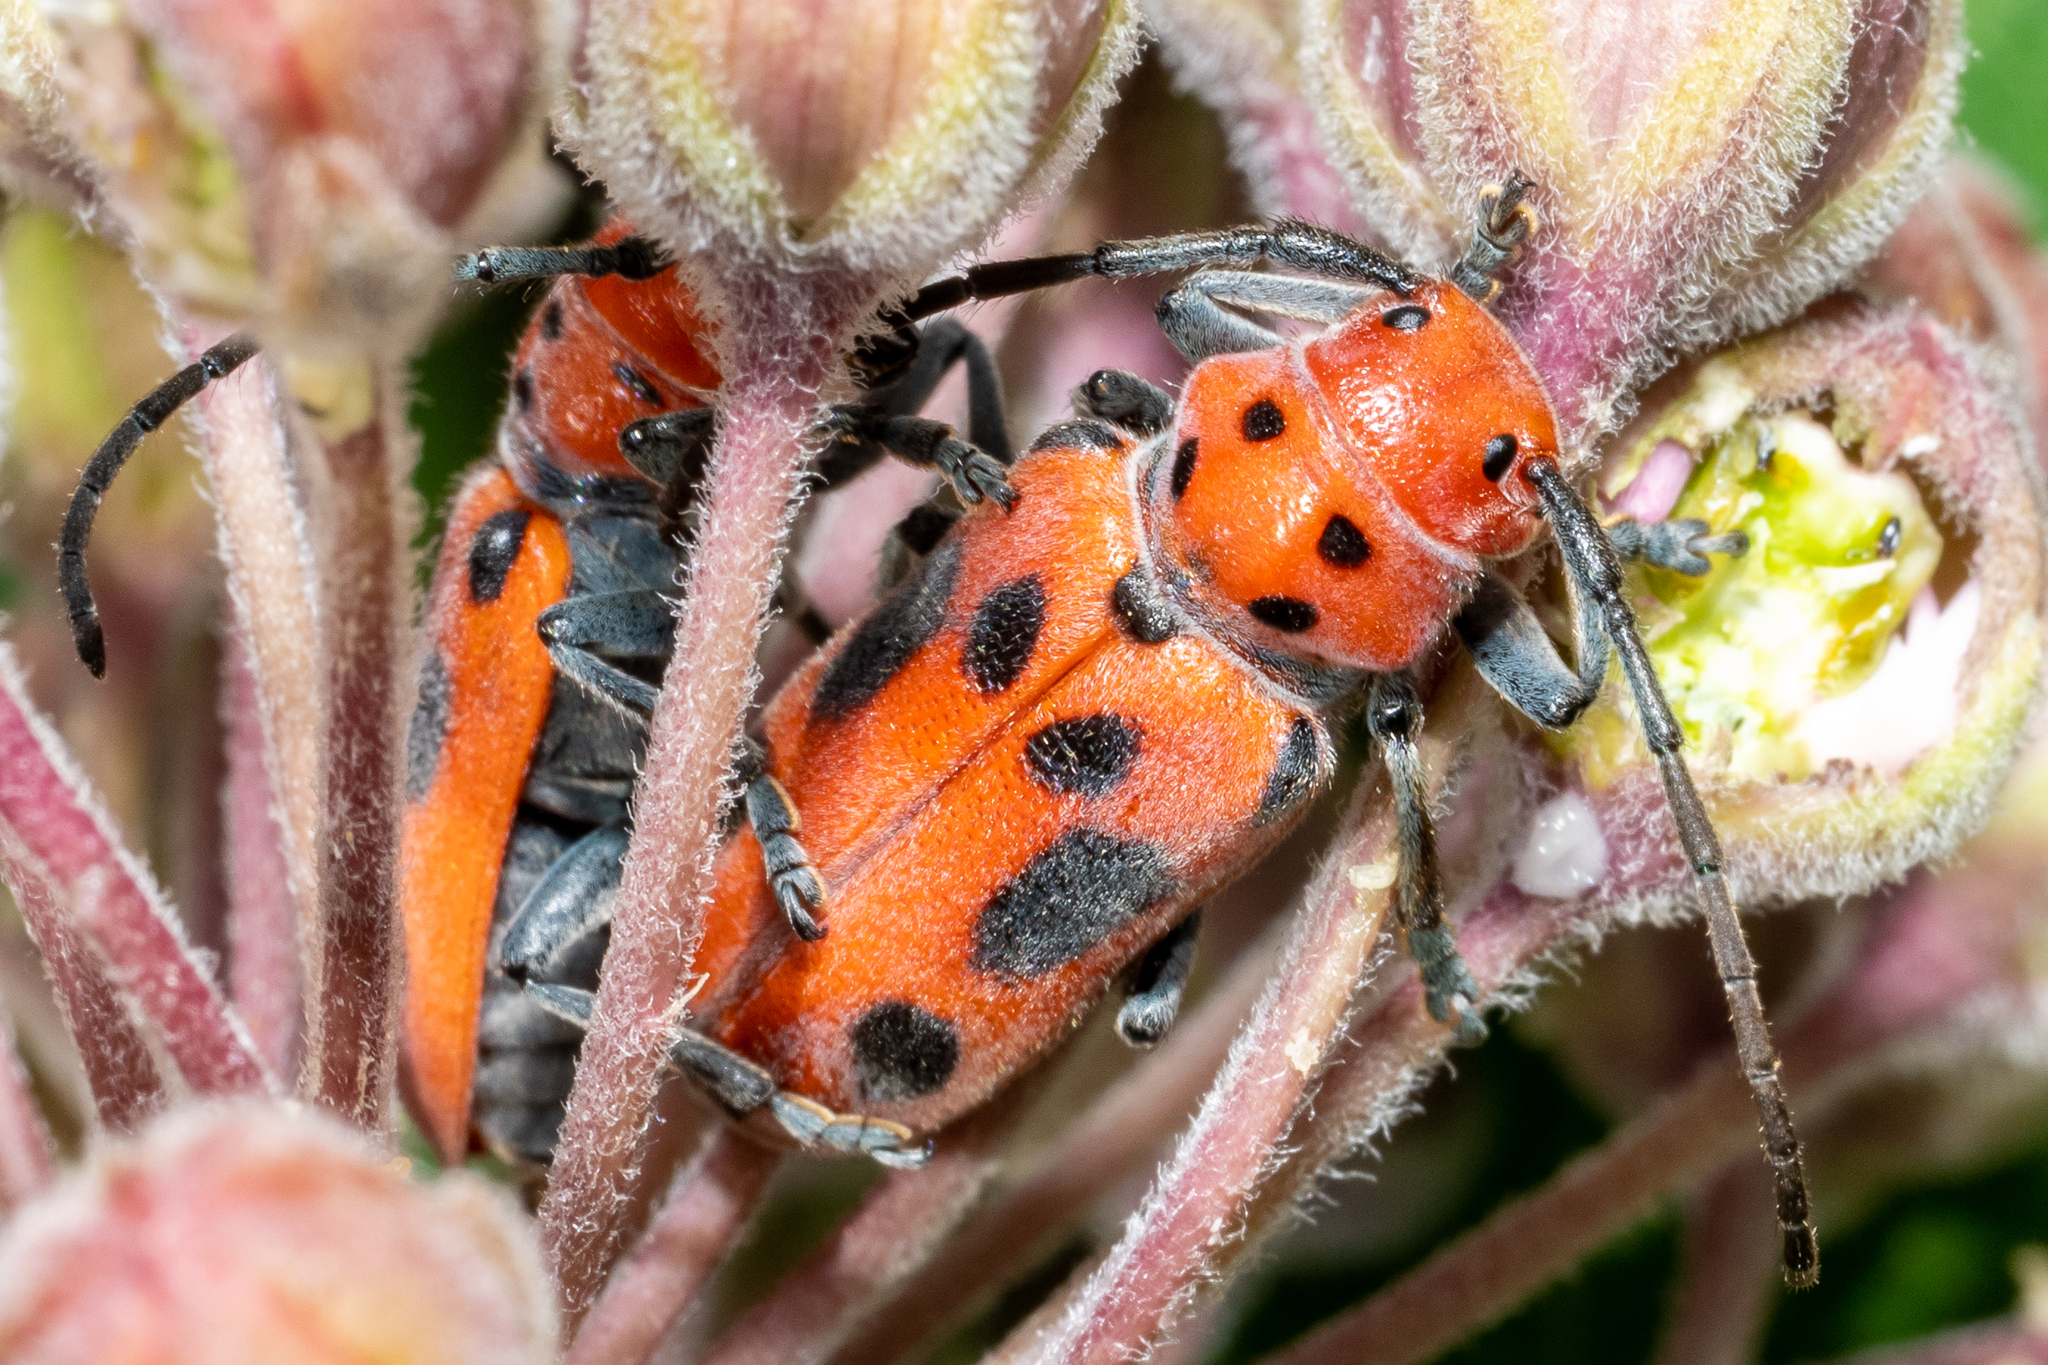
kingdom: Animalia
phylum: Arthropoda
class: Insecta
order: Coleoptera
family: Cerambycidae
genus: Tetraopes
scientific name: Tetraopes tetrophthalmus
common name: Red milkweed beetle
